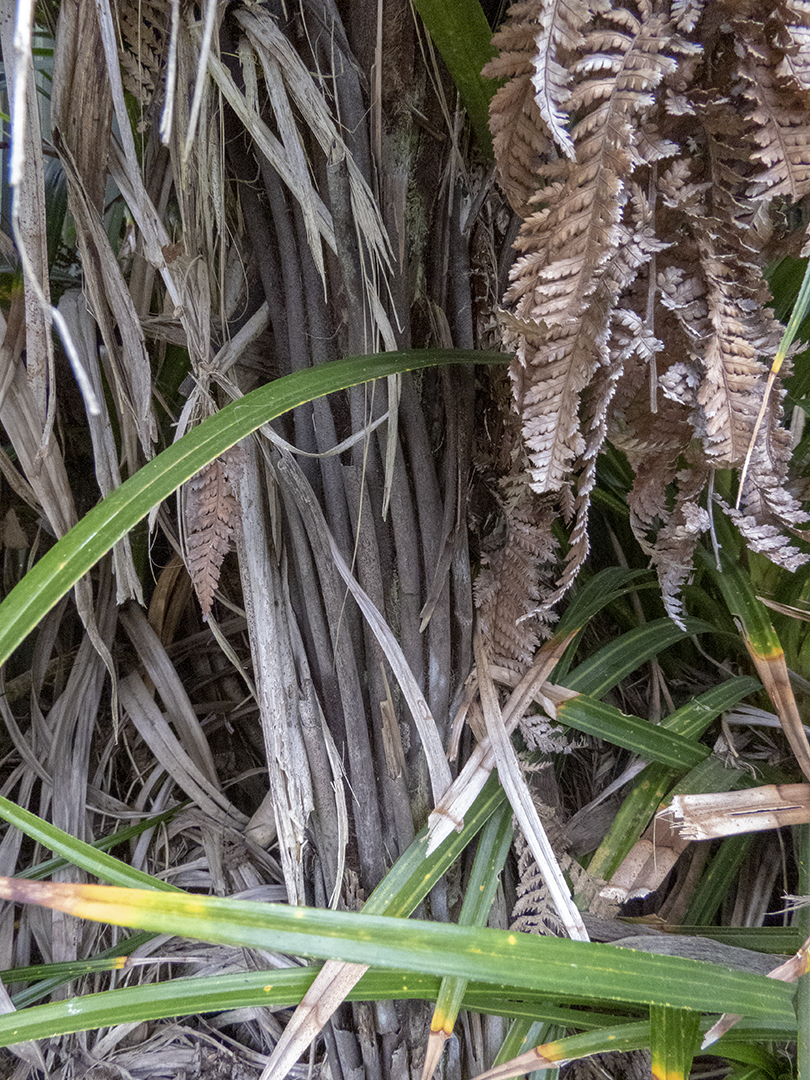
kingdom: Plantae
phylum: Tracheophyta
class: Polypodiopsida
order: Cyatheales
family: Dicksoniaceae
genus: Dicksonia
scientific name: Dicksonia squarrosa
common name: Hard treefern
